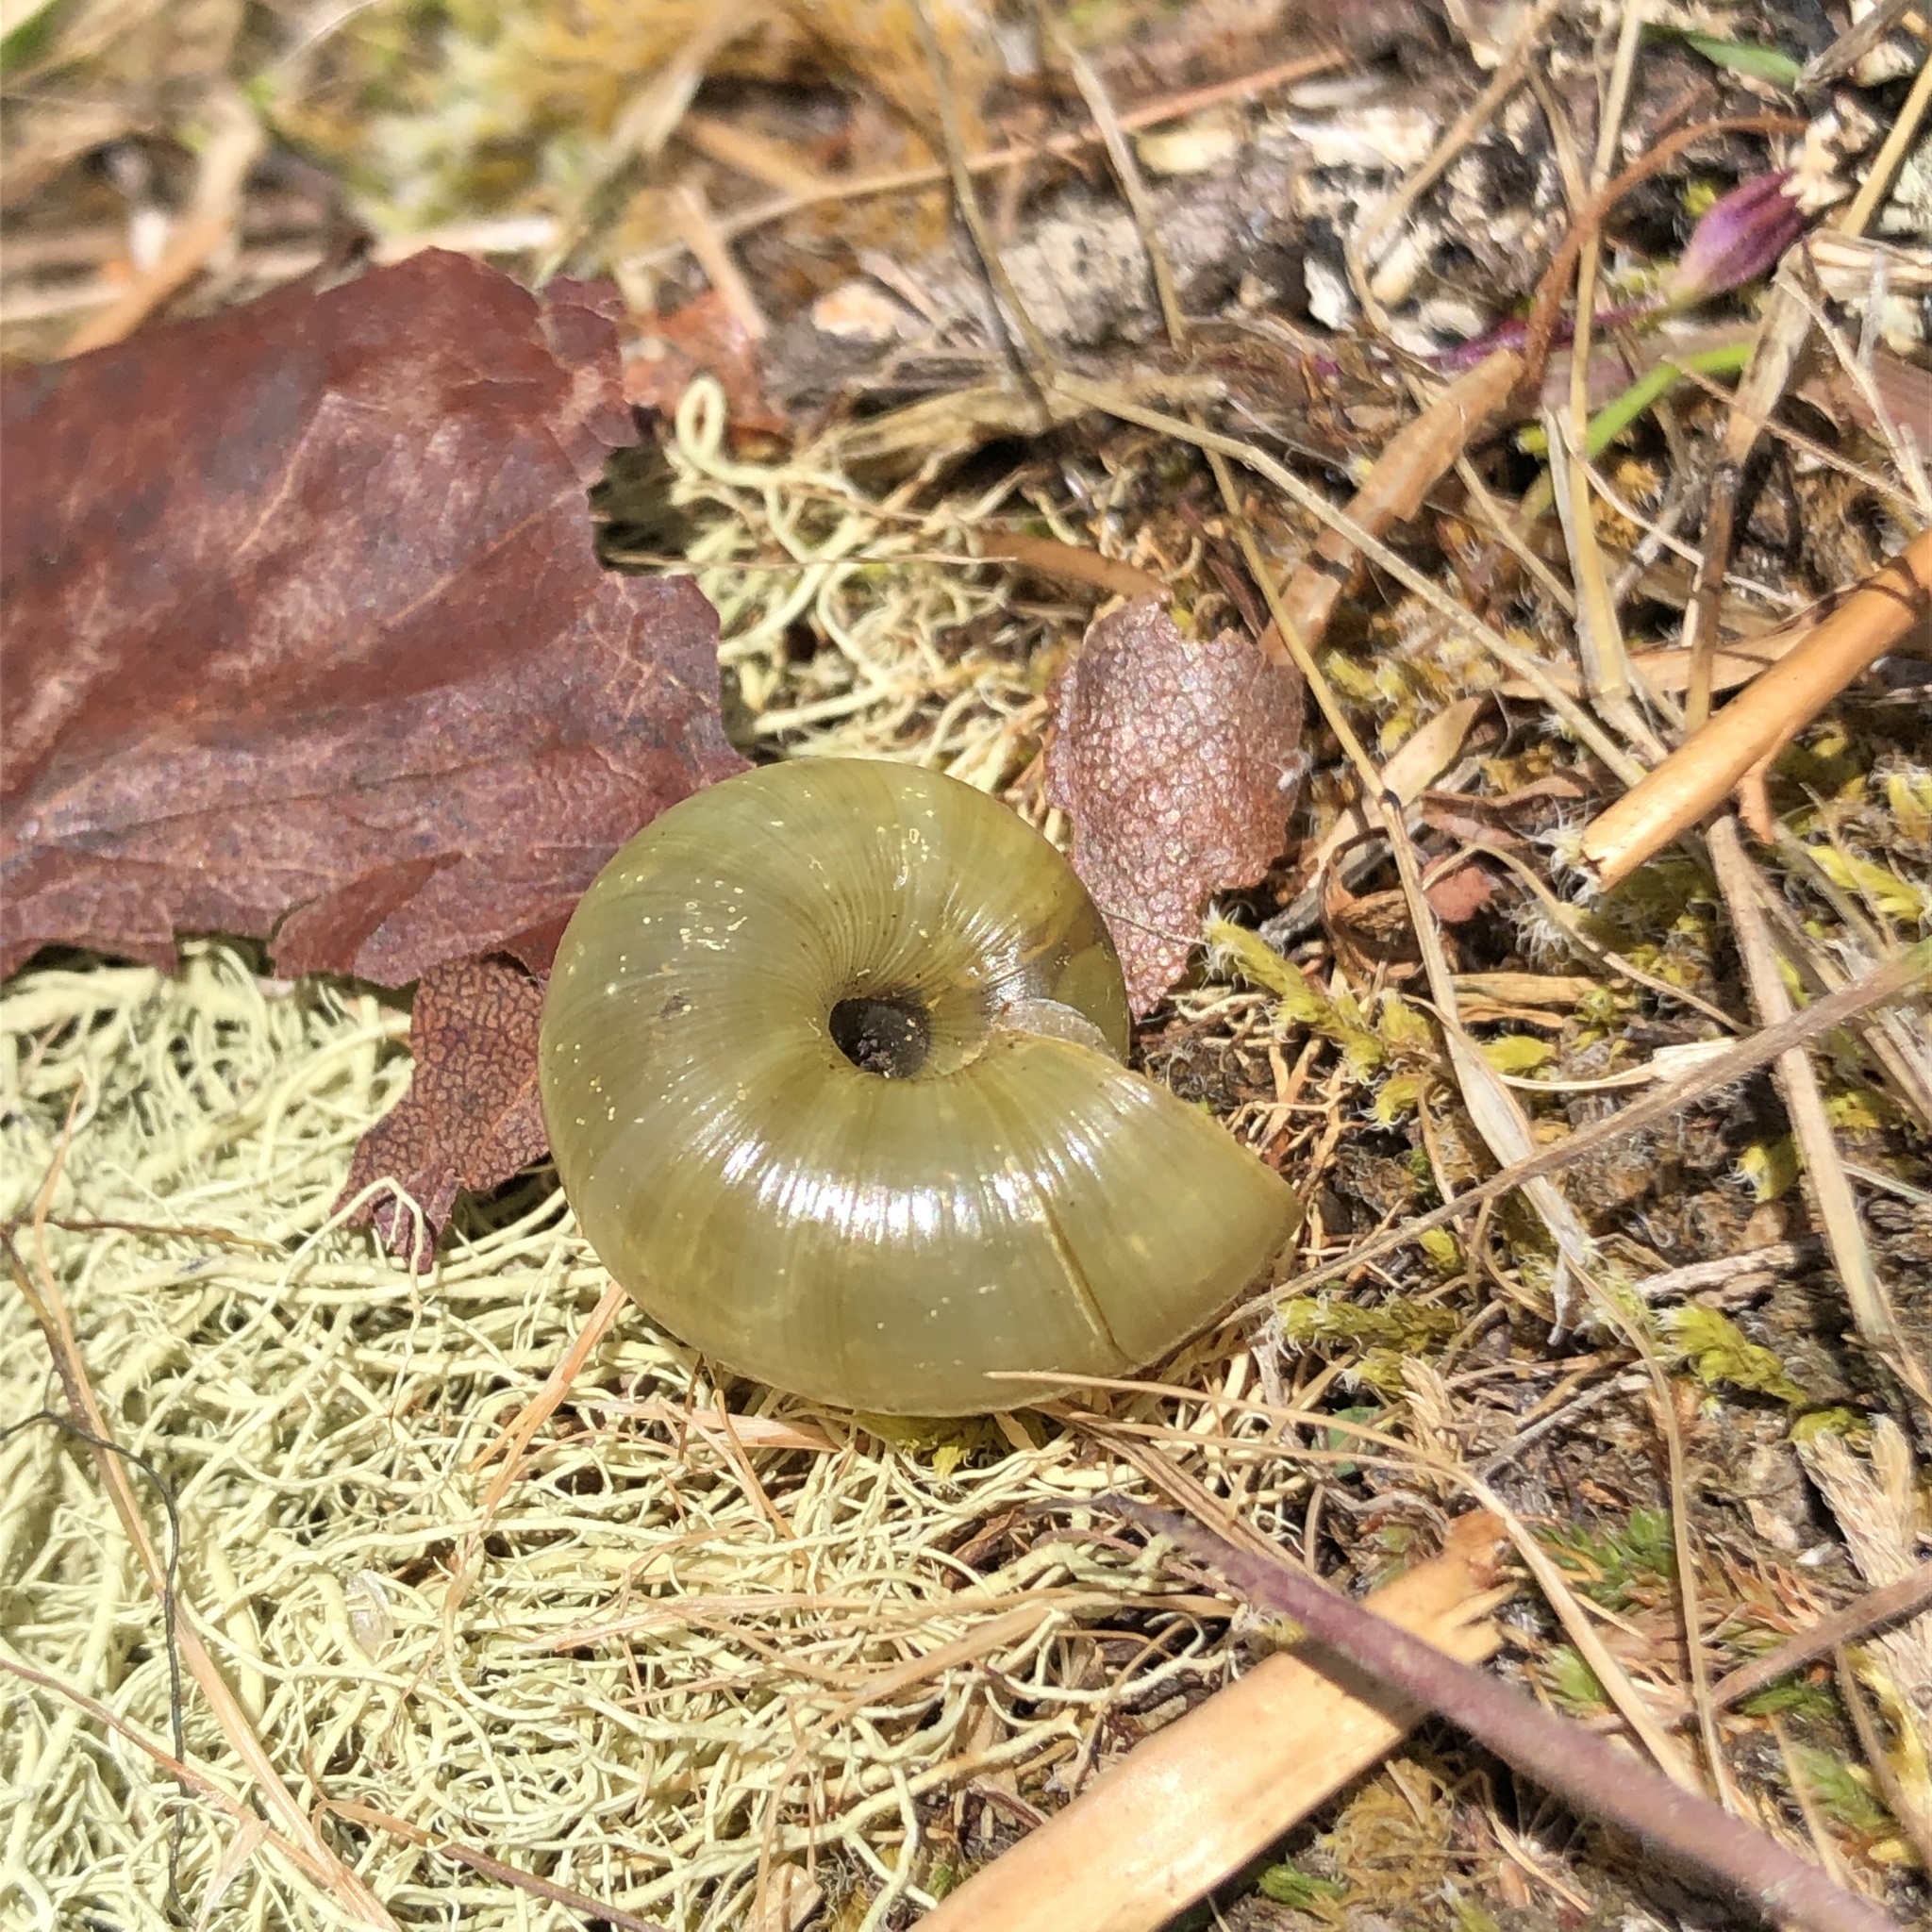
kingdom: Animalia
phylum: Mollusca
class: Gastropoda
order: Stylommatophora
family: Haplotrematidae
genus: Haplotrema
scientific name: Haplotrema vancouverense
